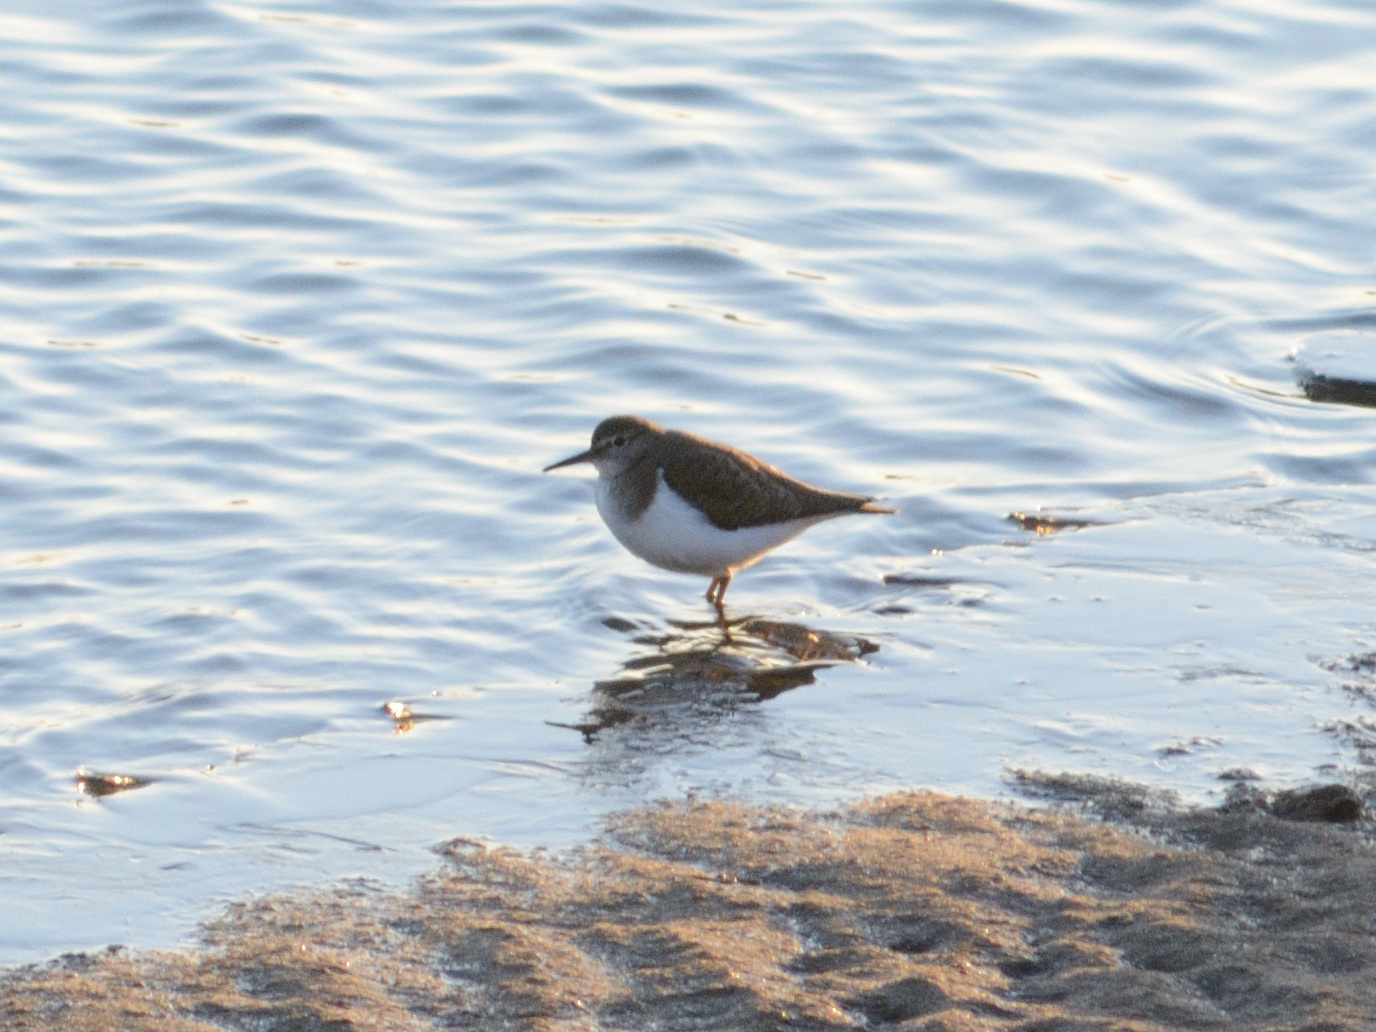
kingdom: Animalia
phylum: Chordata
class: Aves
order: Charadriiformes
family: Scolopacidae
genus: Actitis
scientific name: Actitis hypoleucos
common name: Common sandpiper
